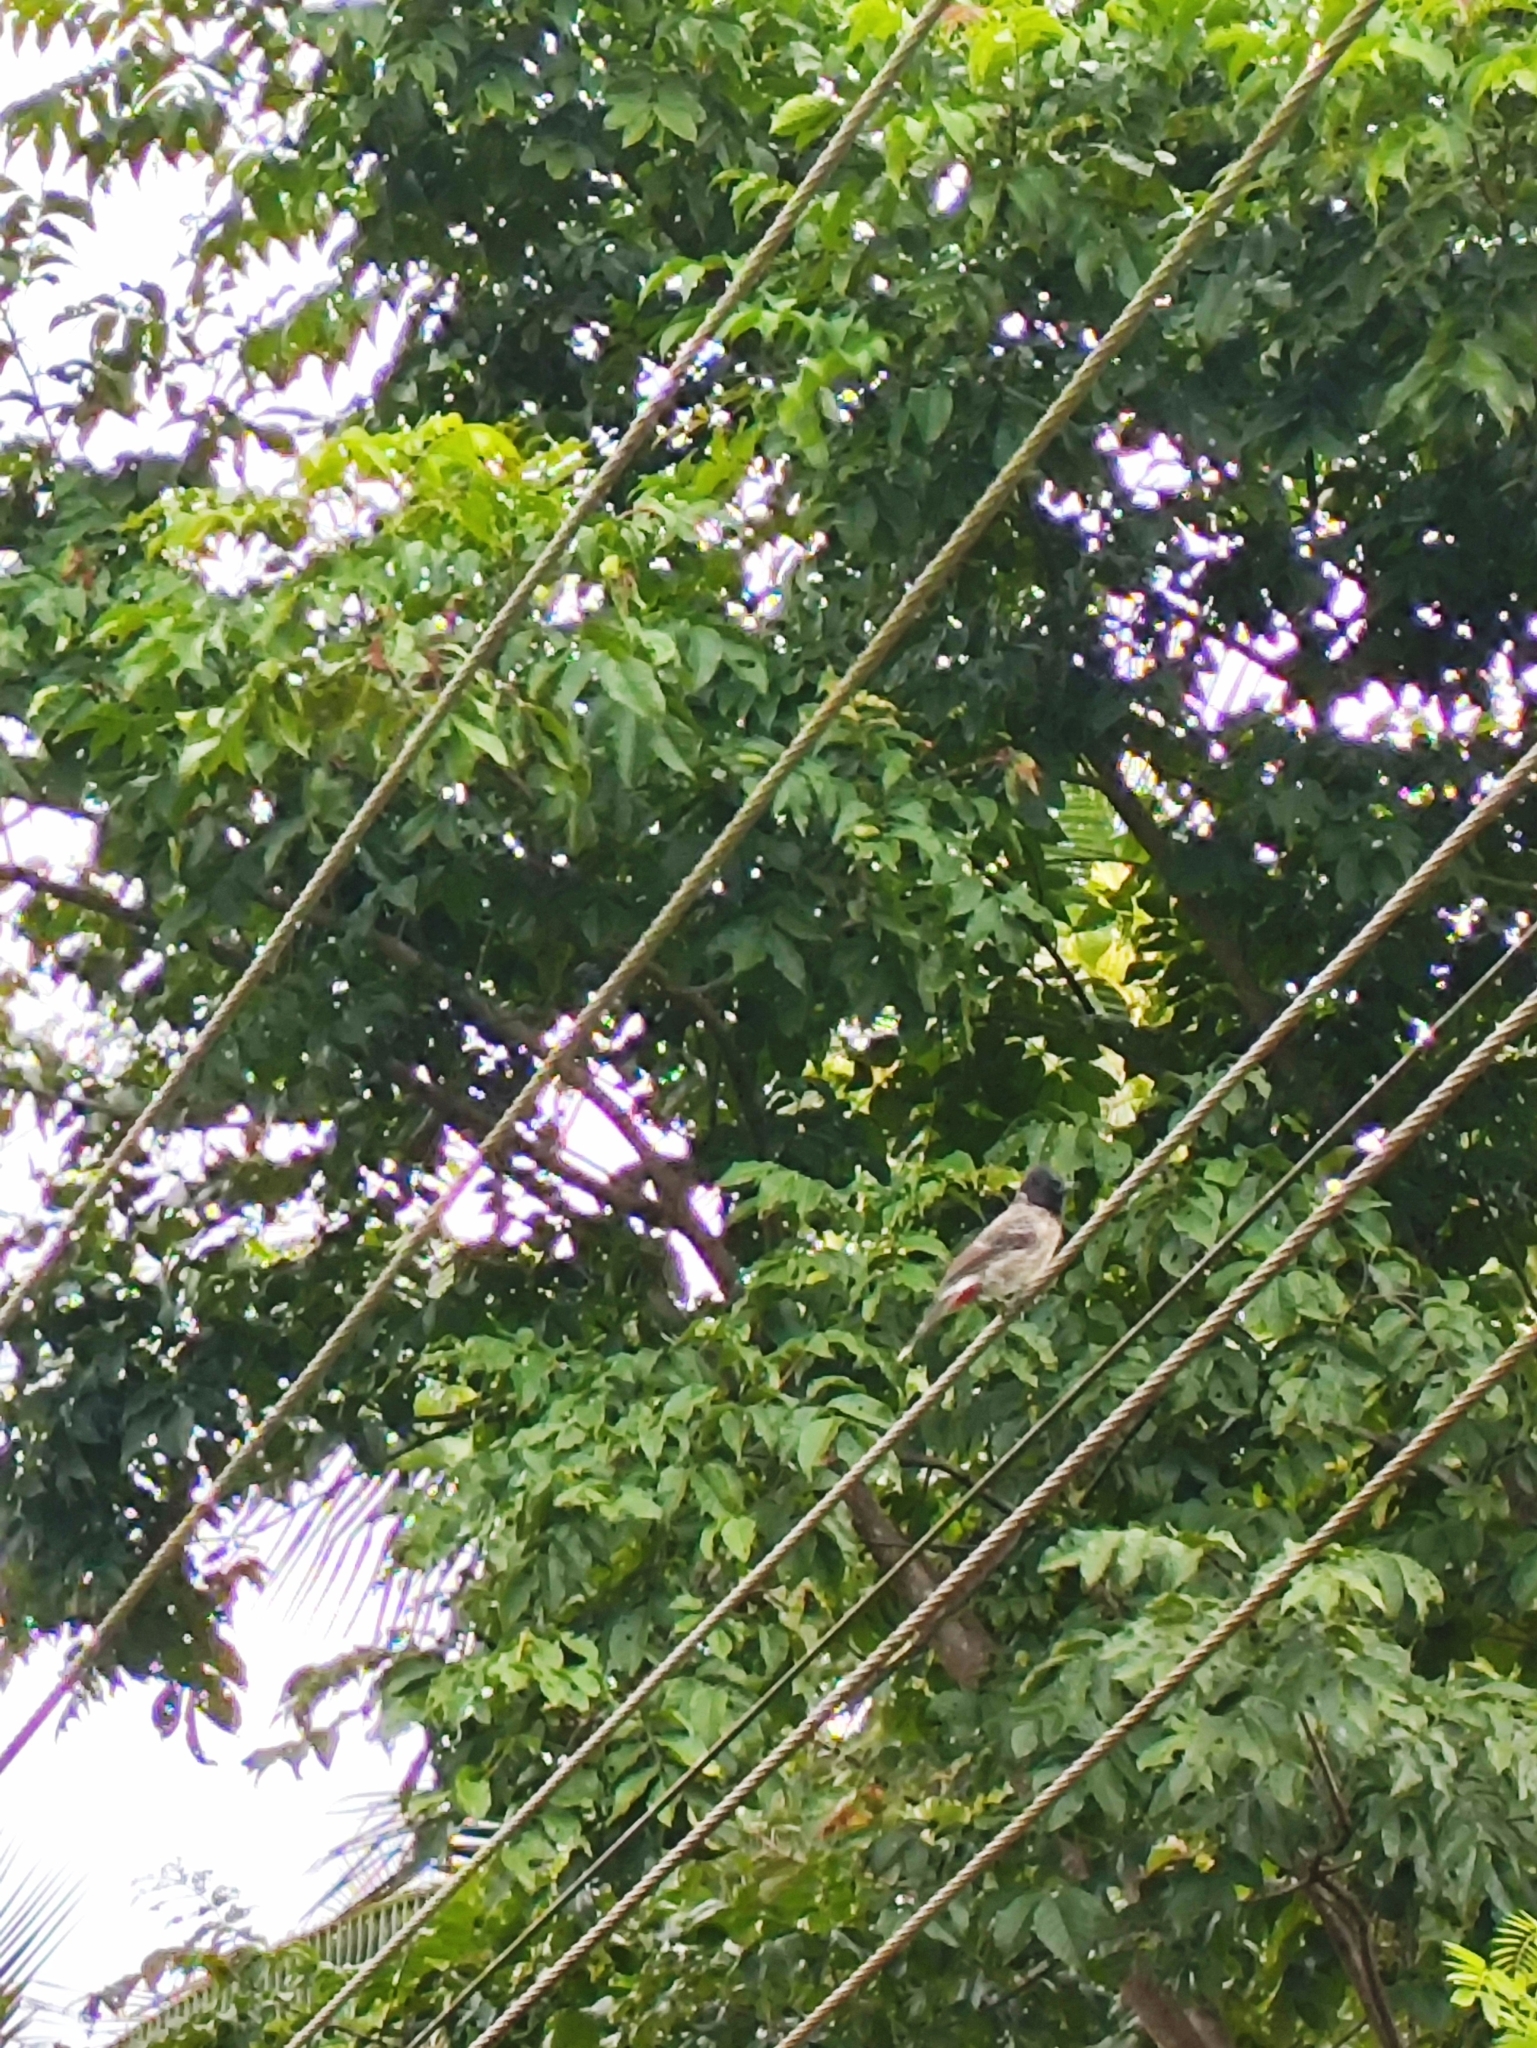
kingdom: Animalia
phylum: Chordata
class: Aves
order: Passeriformes
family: Pycnonotidae
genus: Pycnonotus
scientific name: Pycnonotus cafer
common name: Red-vented bulbul
